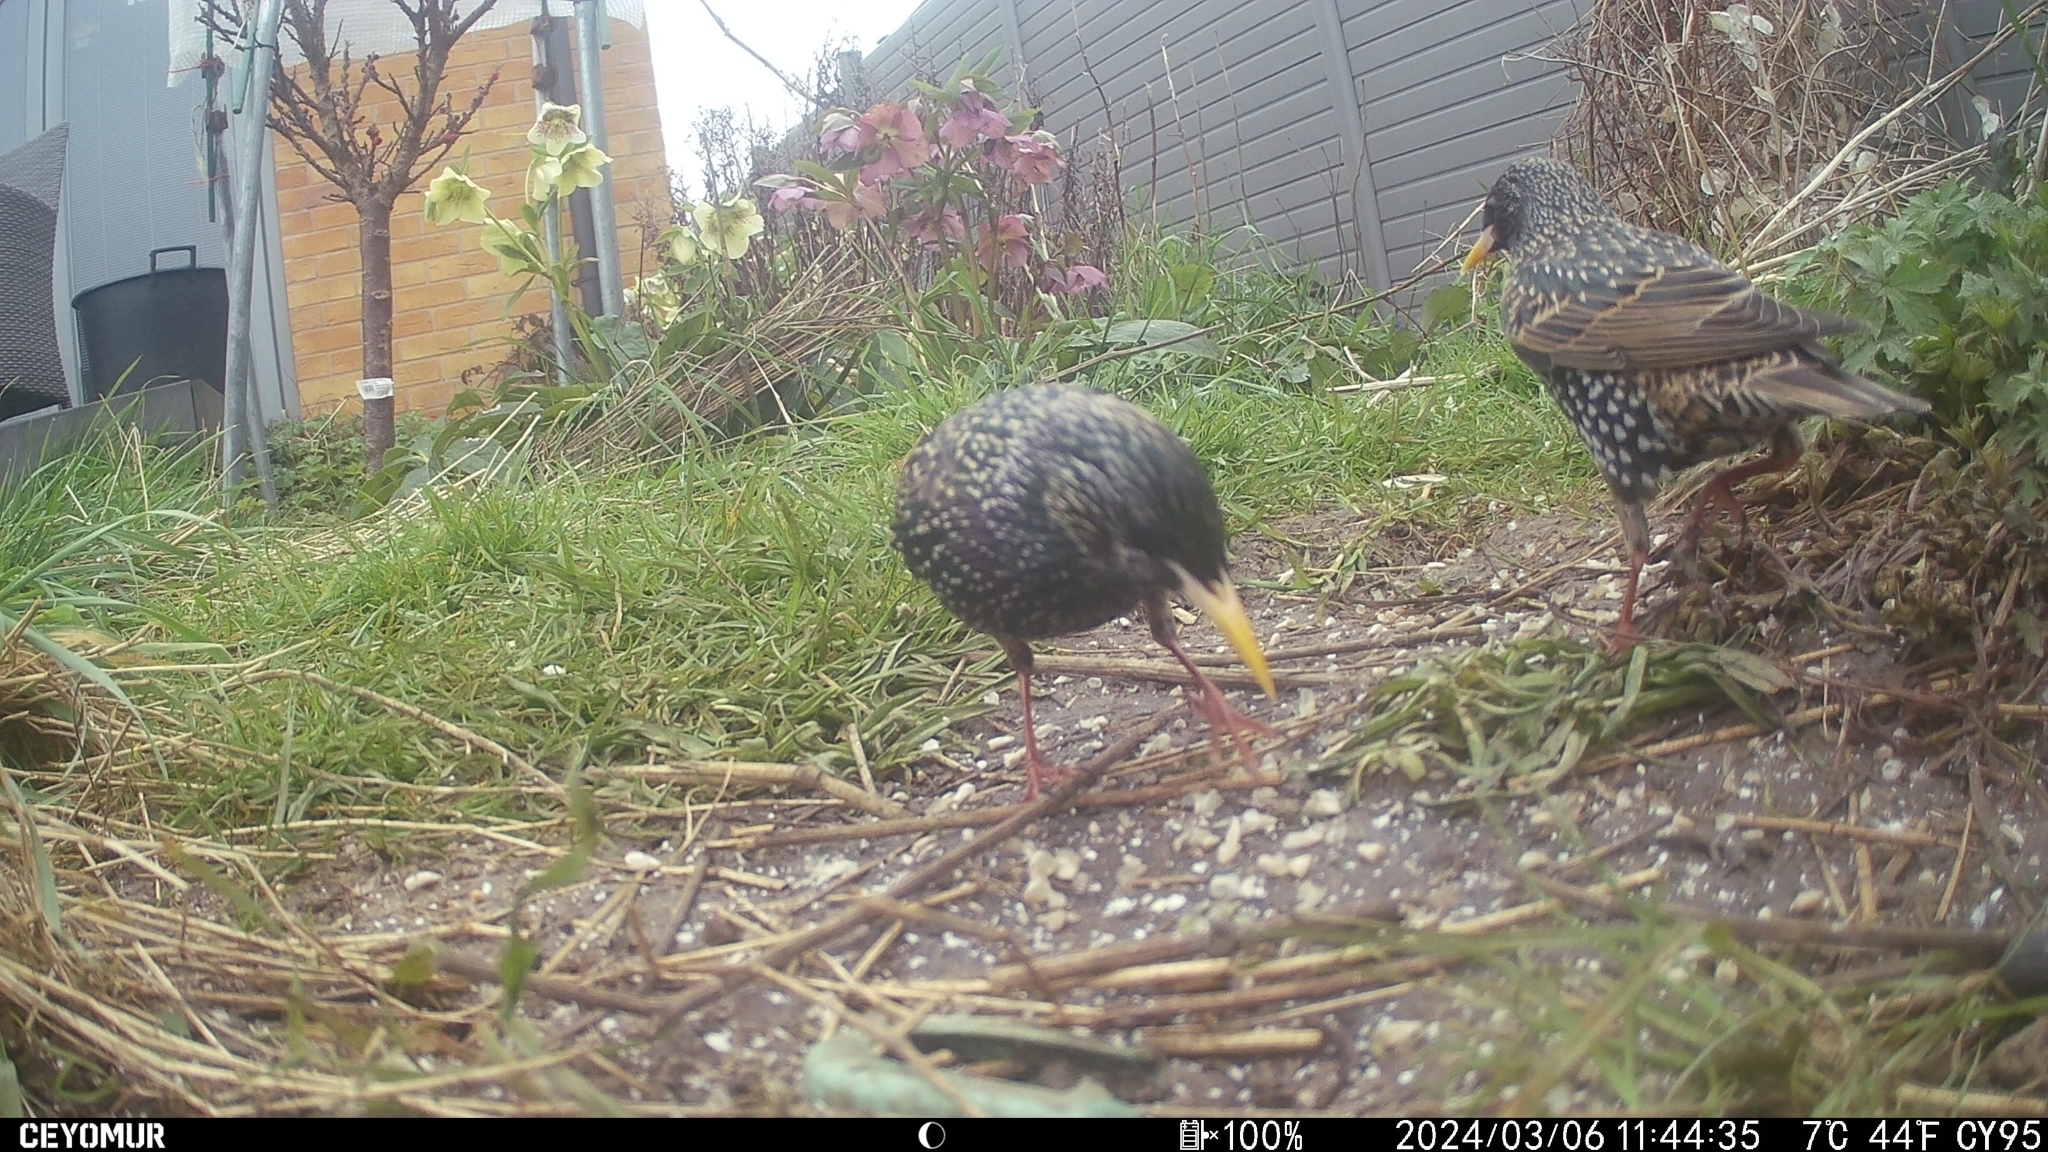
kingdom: Animalia
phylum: Chordata
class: Aves
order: Passeriformes
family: Sturnidae
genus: Sturnus
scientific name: Sturnus vulgaris
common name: Common starling
